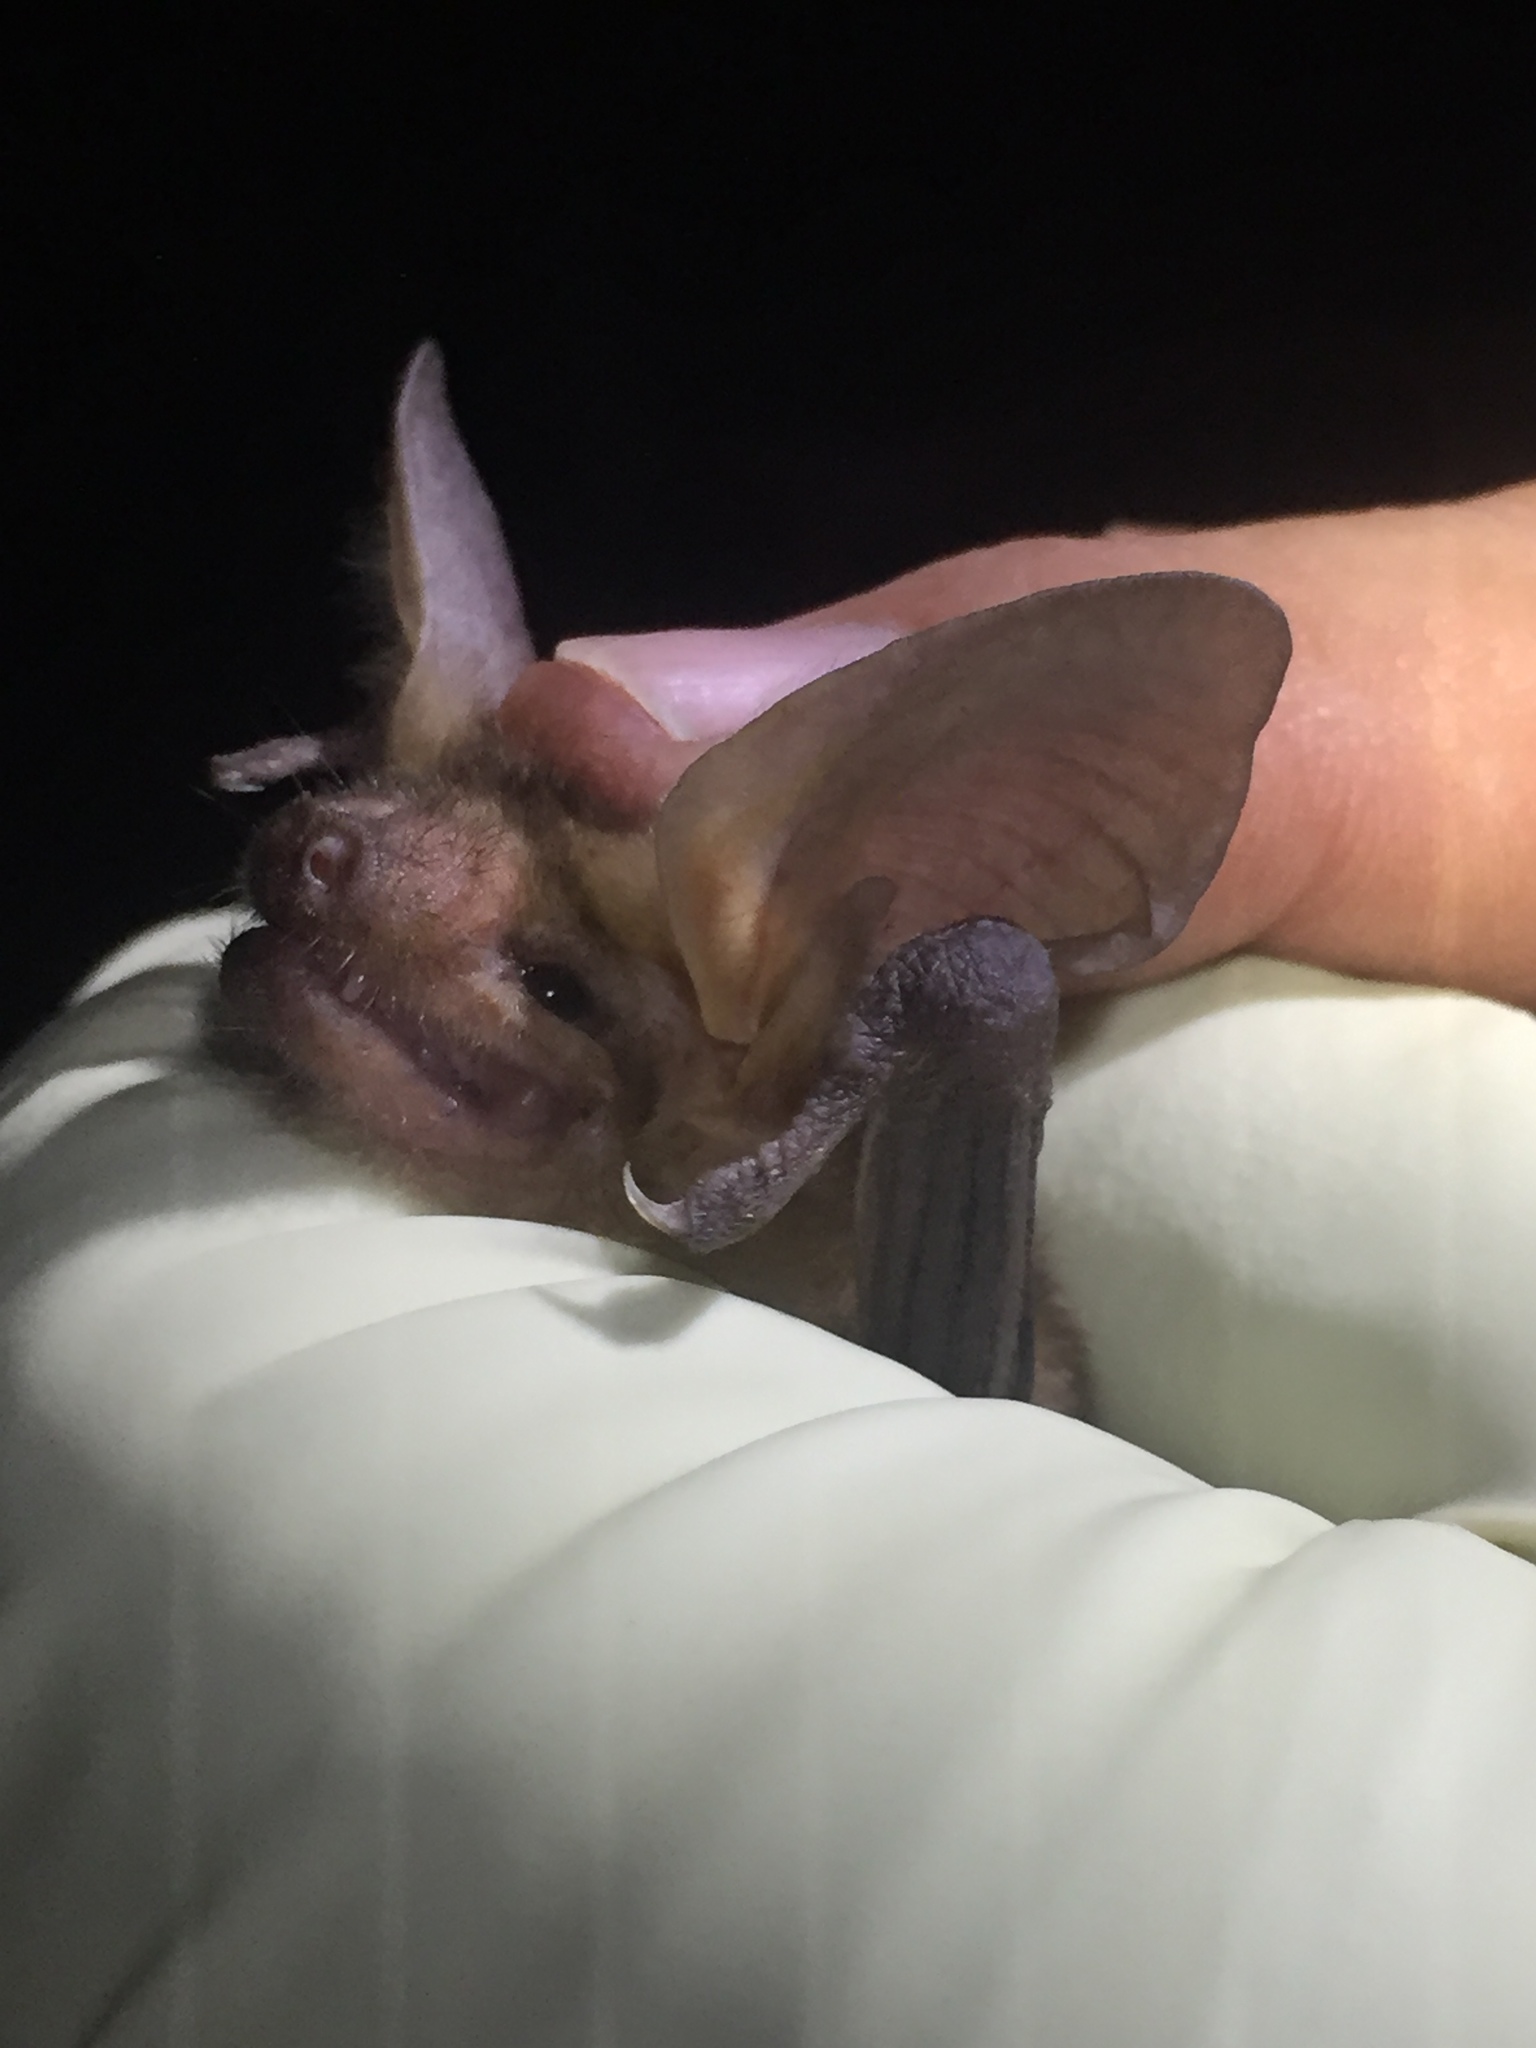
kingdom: Animalia
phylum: Chordata
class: Mammalia
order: Chiroptera
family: Vespertilionidae
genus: Antrozous
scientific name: Antrozous pallidus
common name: Pallid bat
